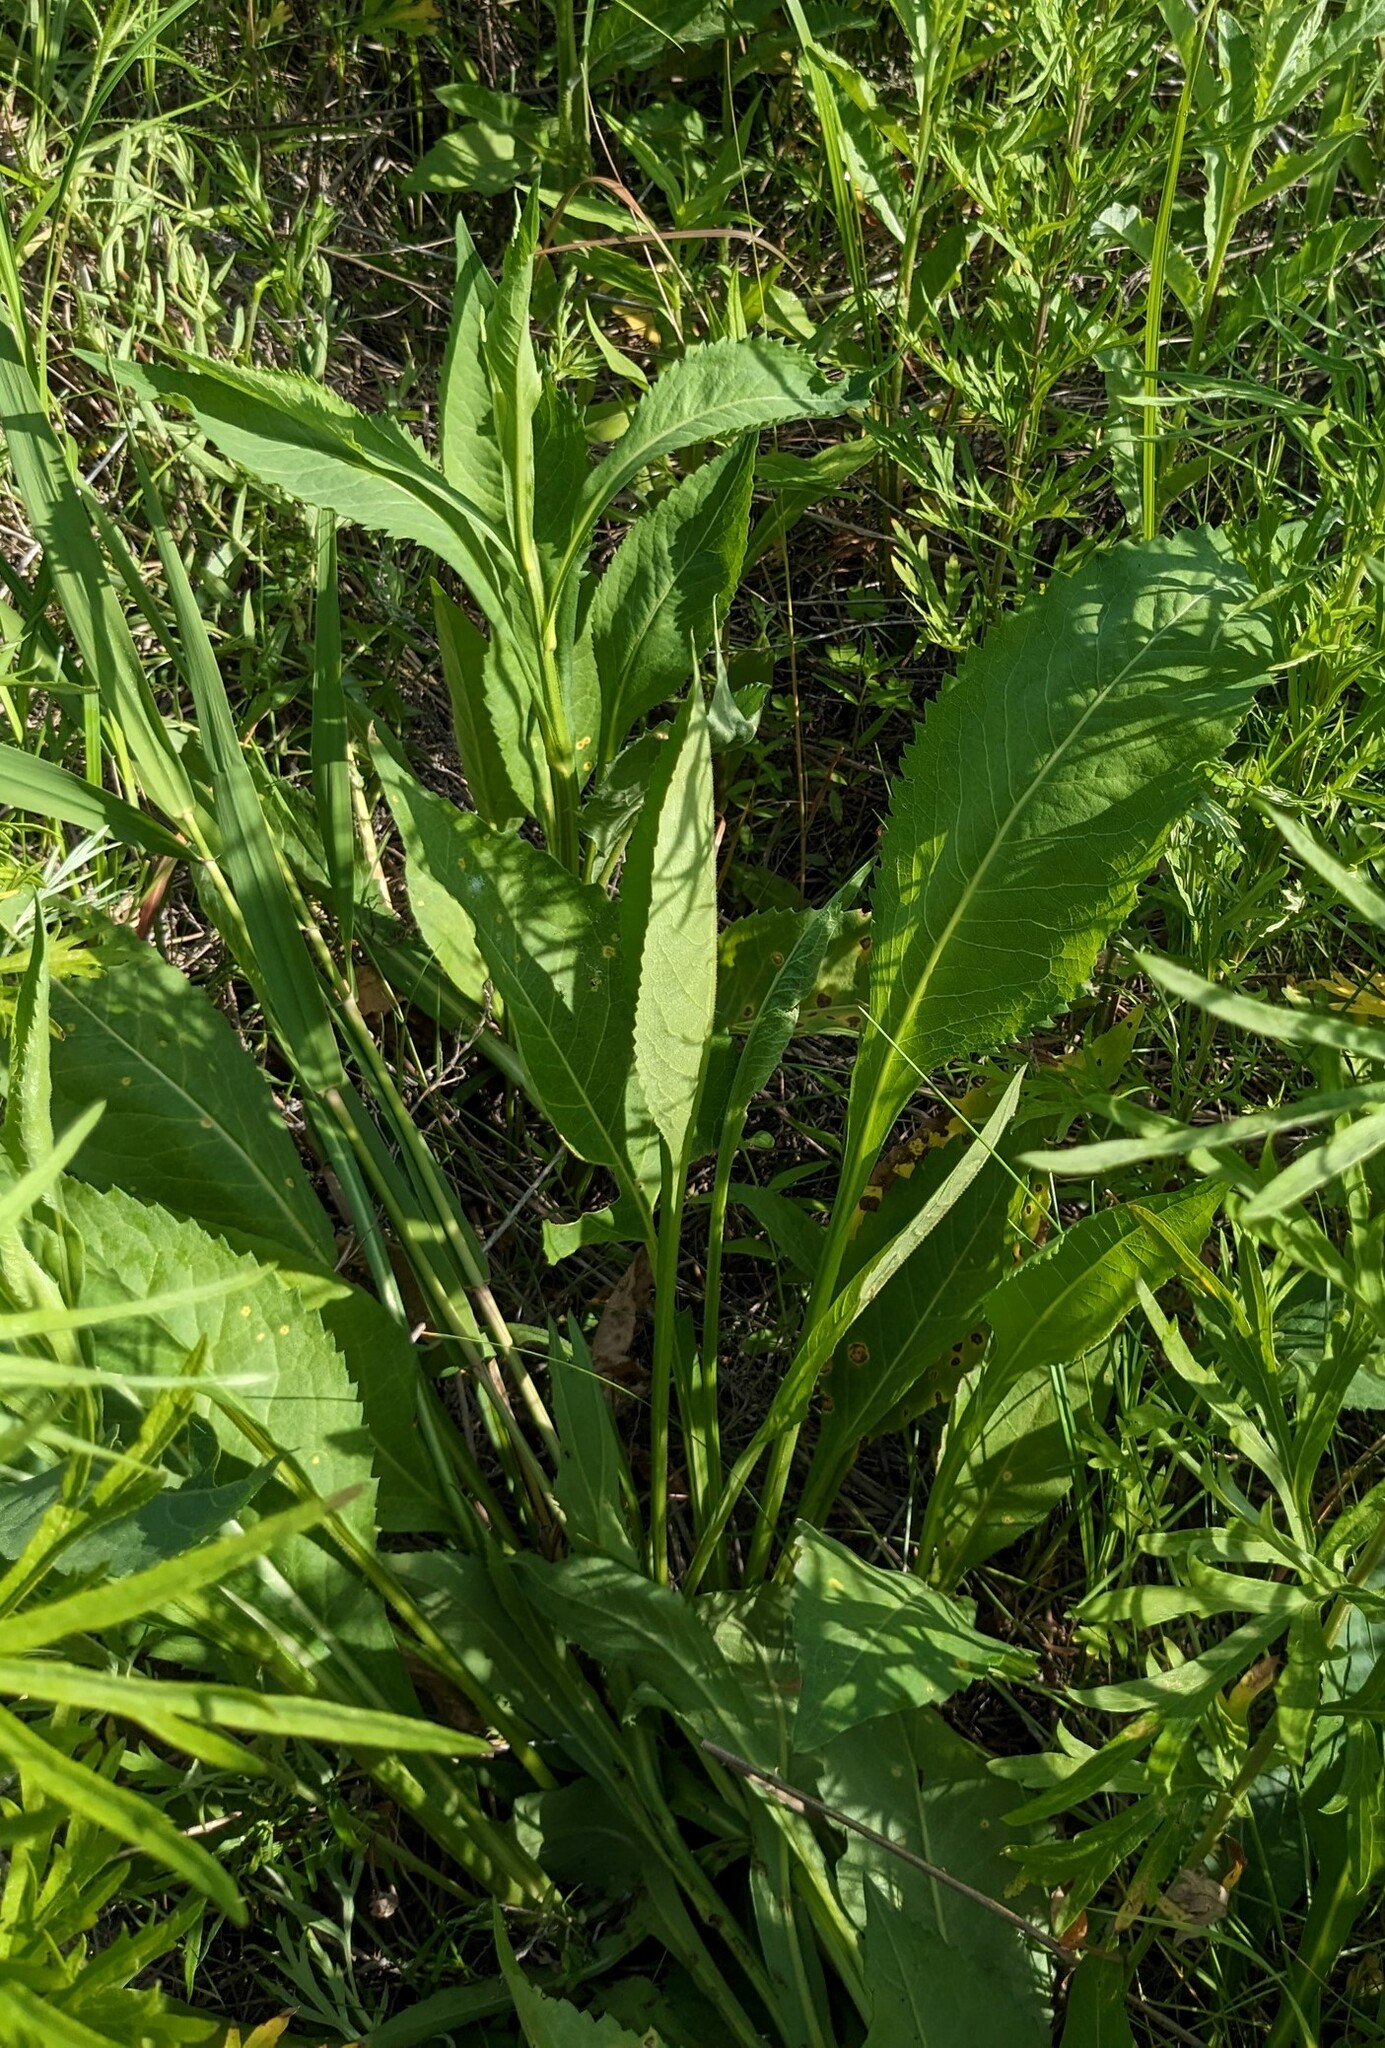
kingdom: Plantae
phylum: Tracheophyta
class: Magnoliopsida
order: Asterales
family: Asteraceae
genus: Aster
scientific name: Aster tataricus
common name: Tatarian aster
